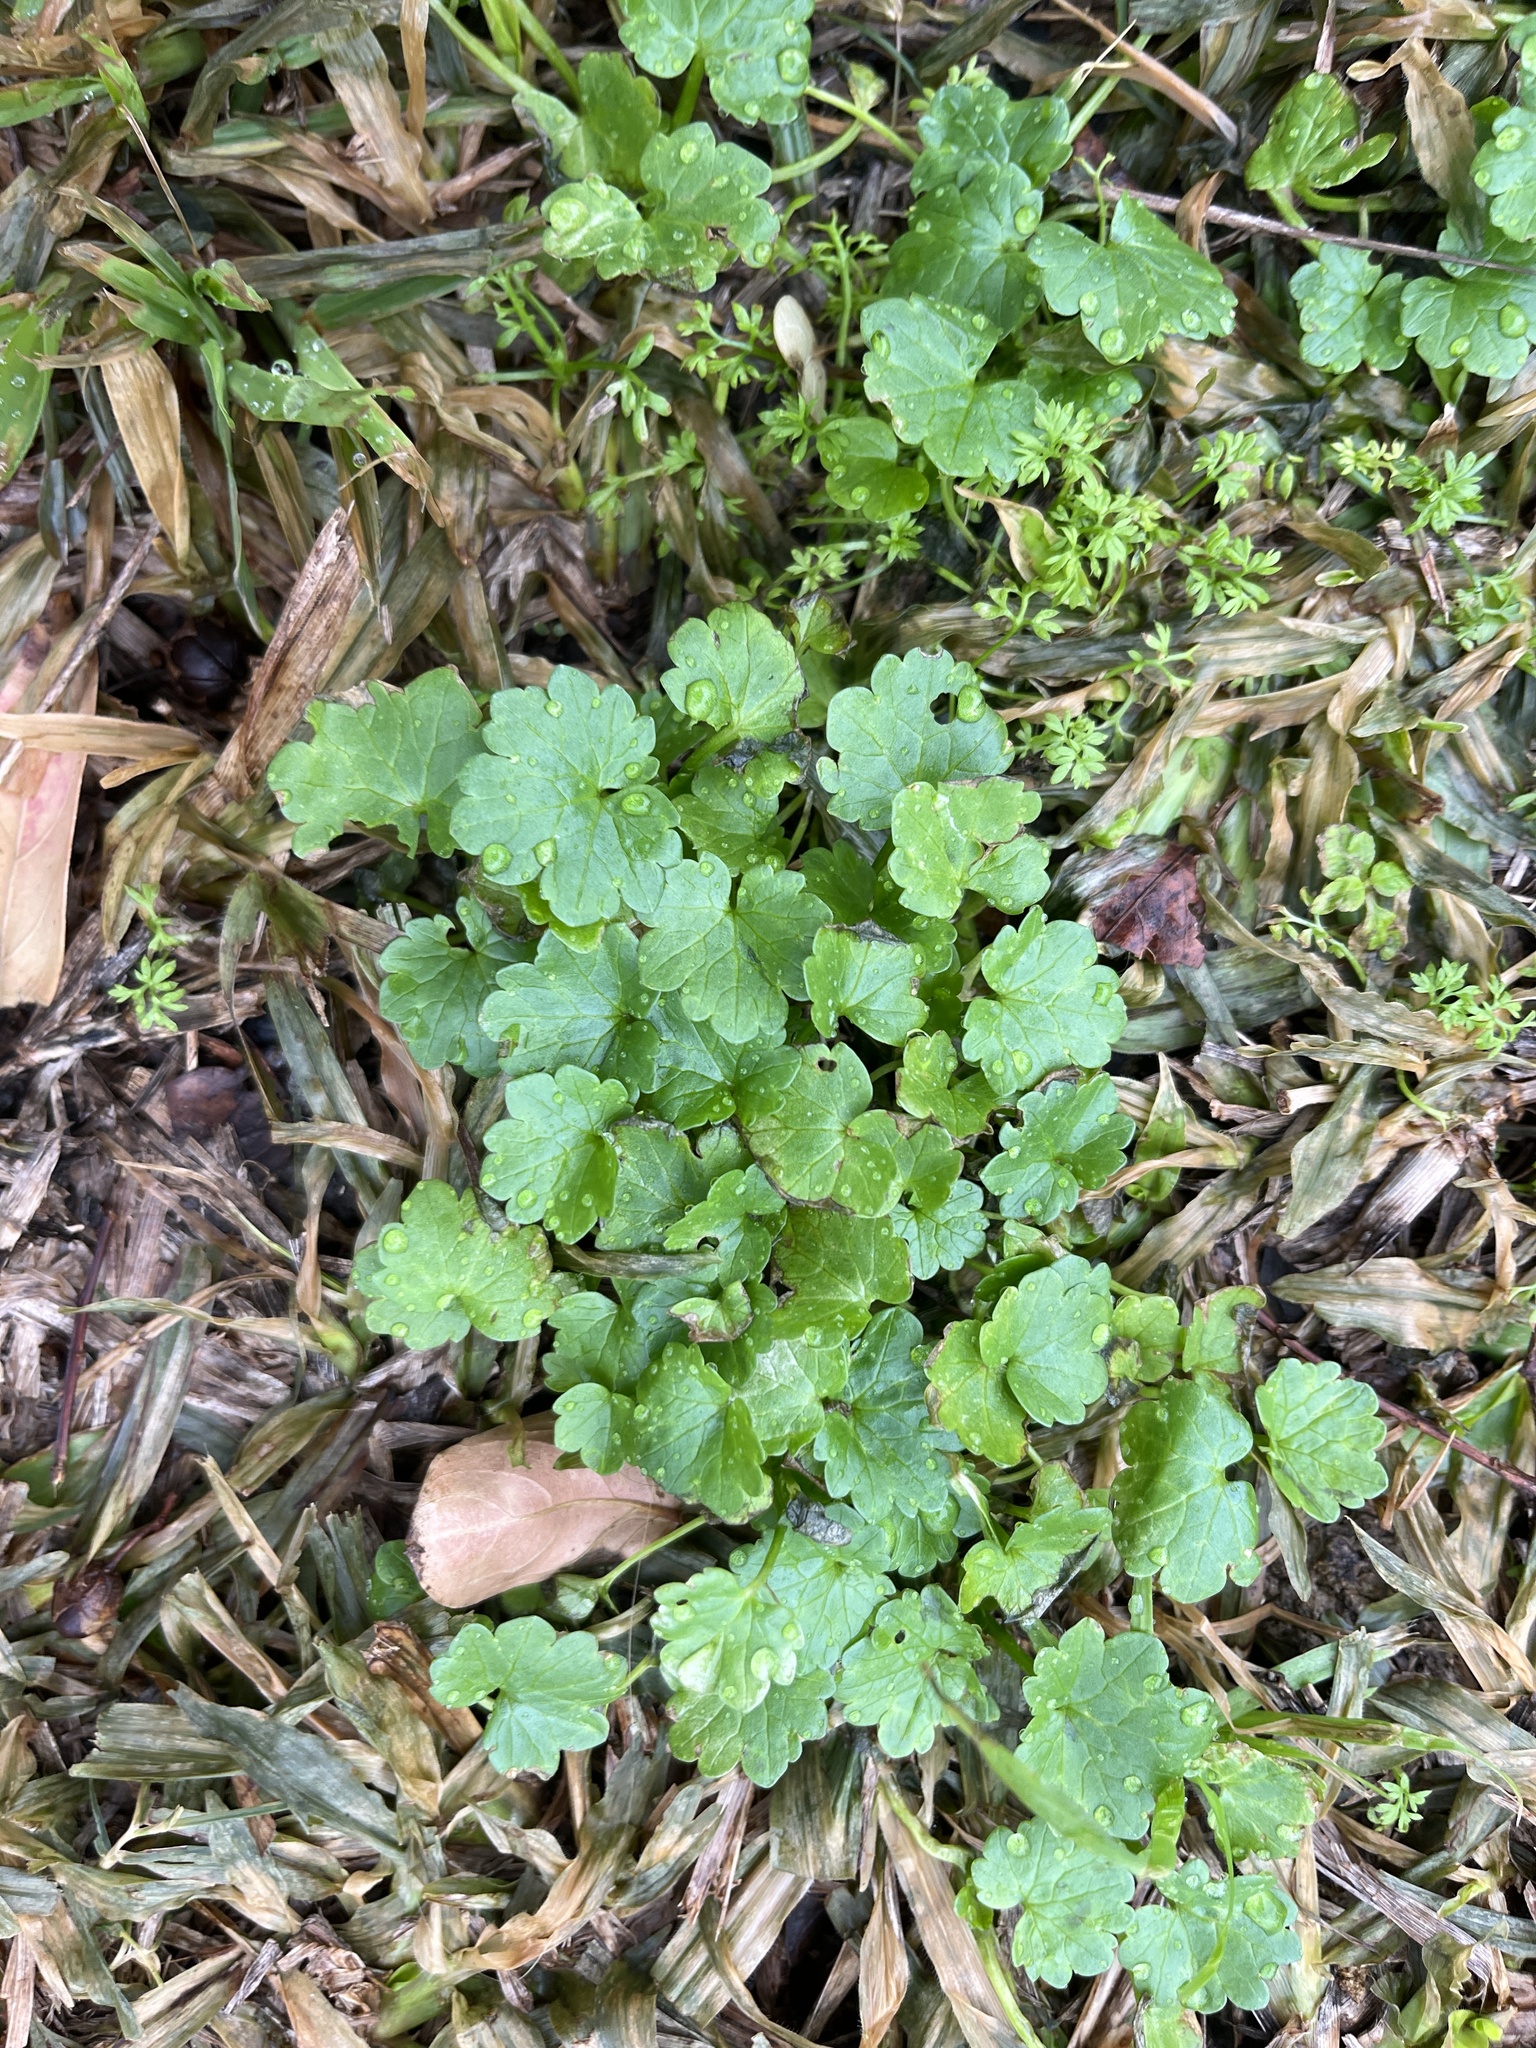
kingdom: Plantae
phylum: Tracheophyta
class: Magnoliopsida
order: Malvales
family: Malvaceae
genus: Modiola
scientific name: Modiola caroliniana
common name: Carolina bristlemallow
